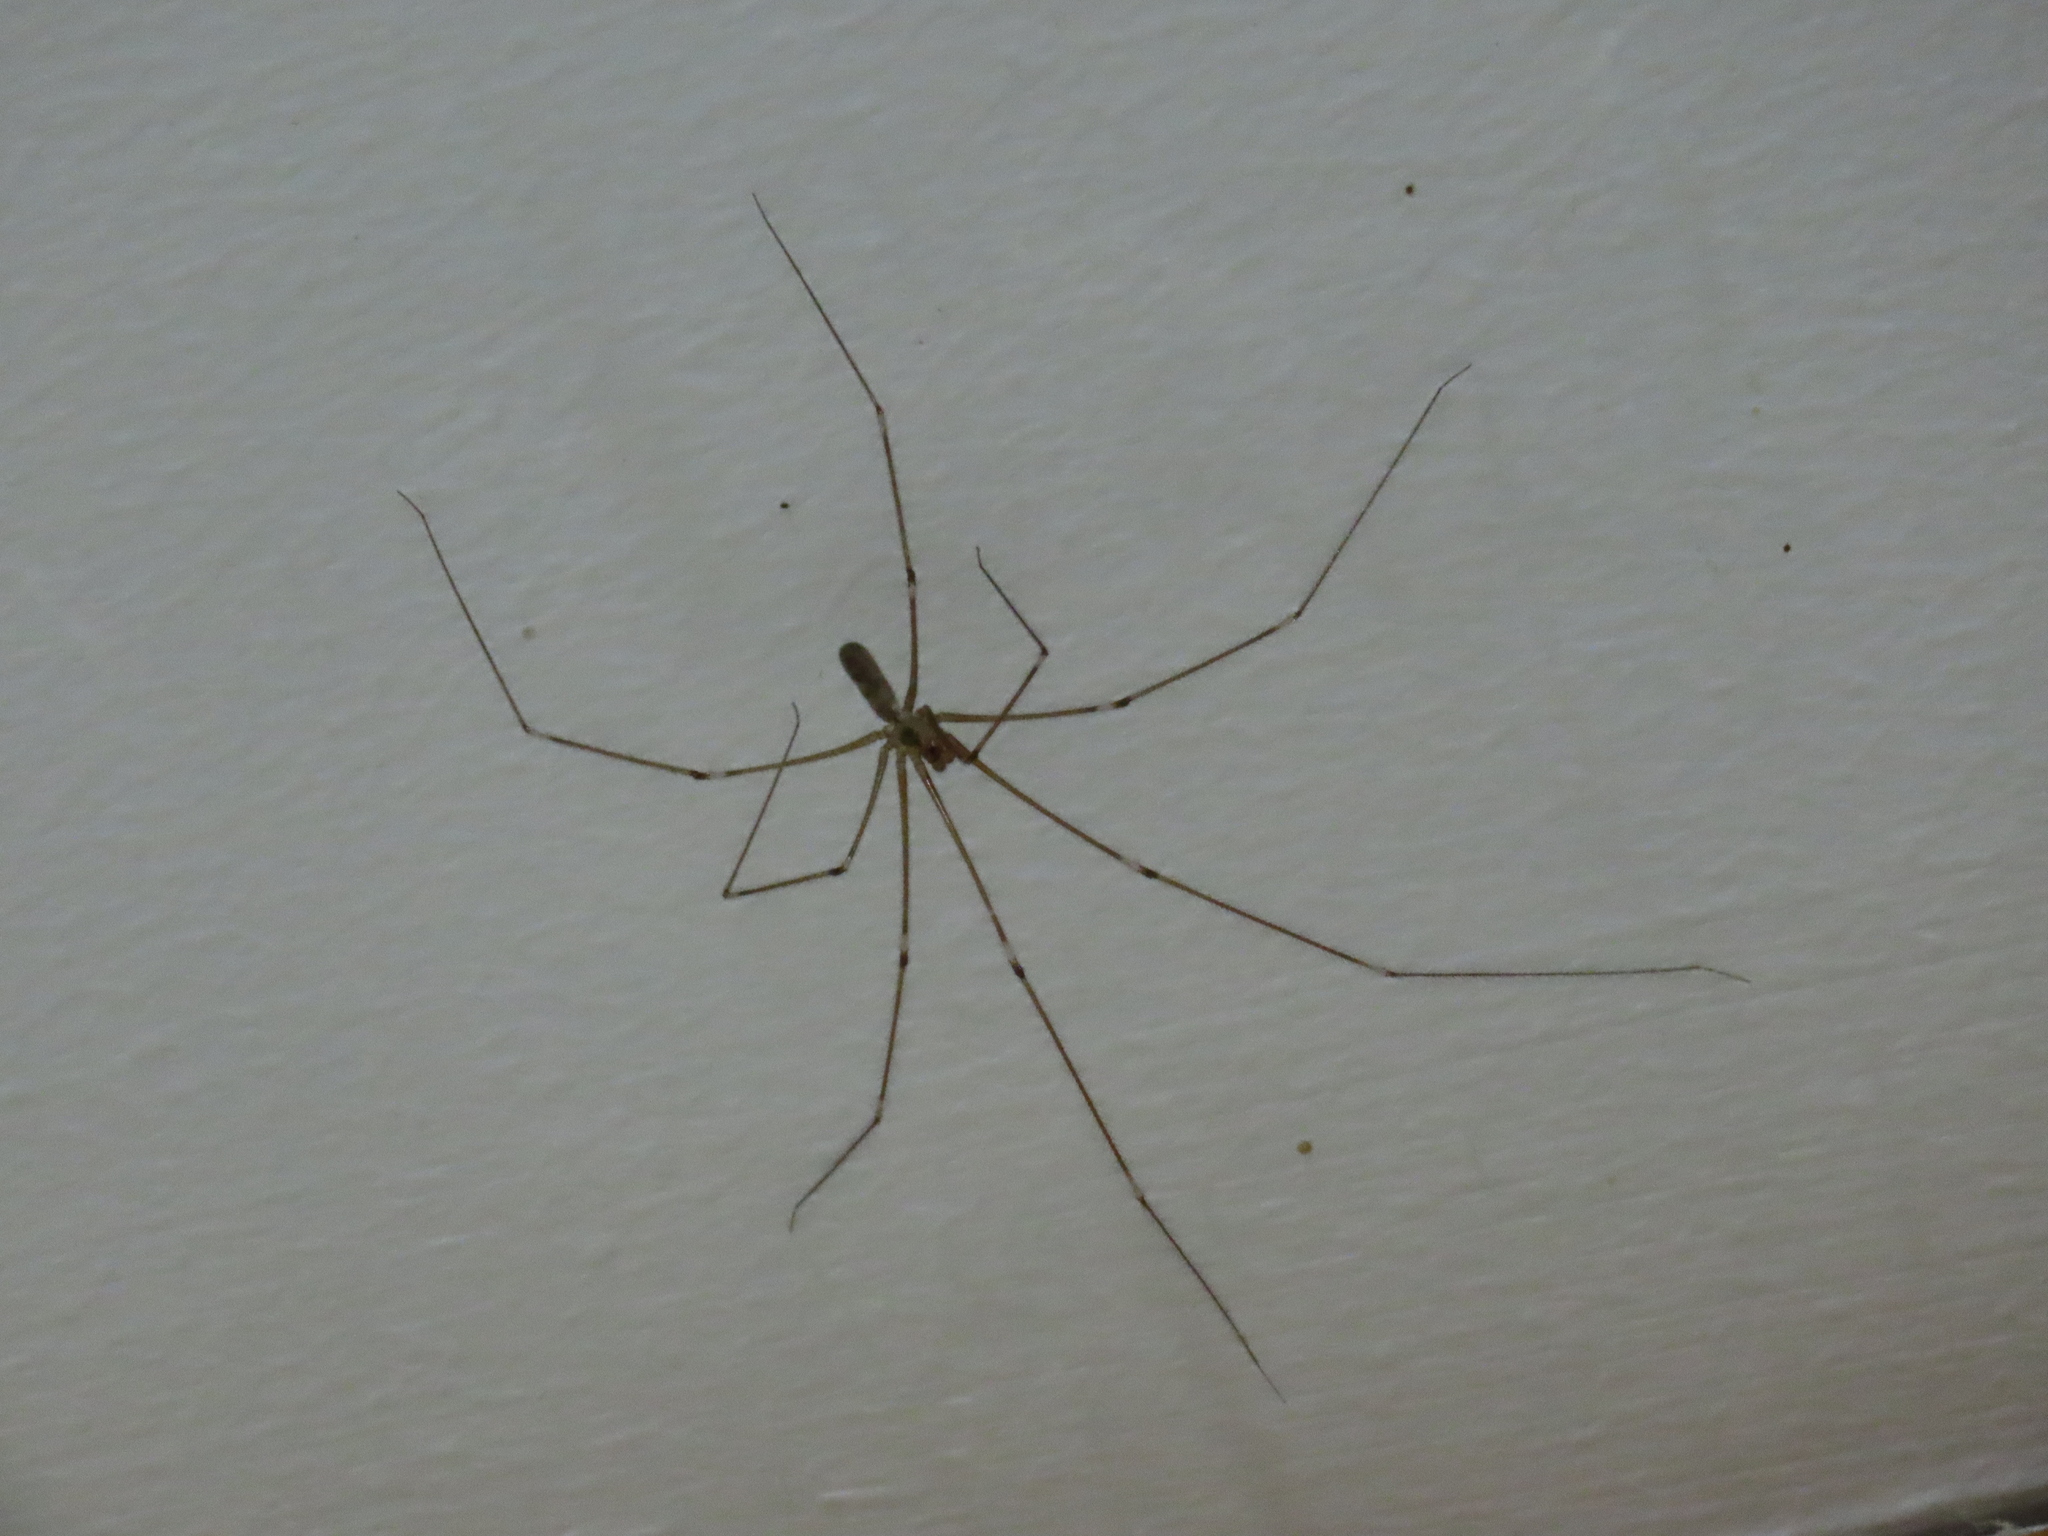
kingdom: Animalia
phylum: Arthropoda
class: Arachnida
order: Araneae
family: Pholcidae
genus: Pholcus
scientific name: Pholcus phalangioides
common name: Longbodied cellar spider
